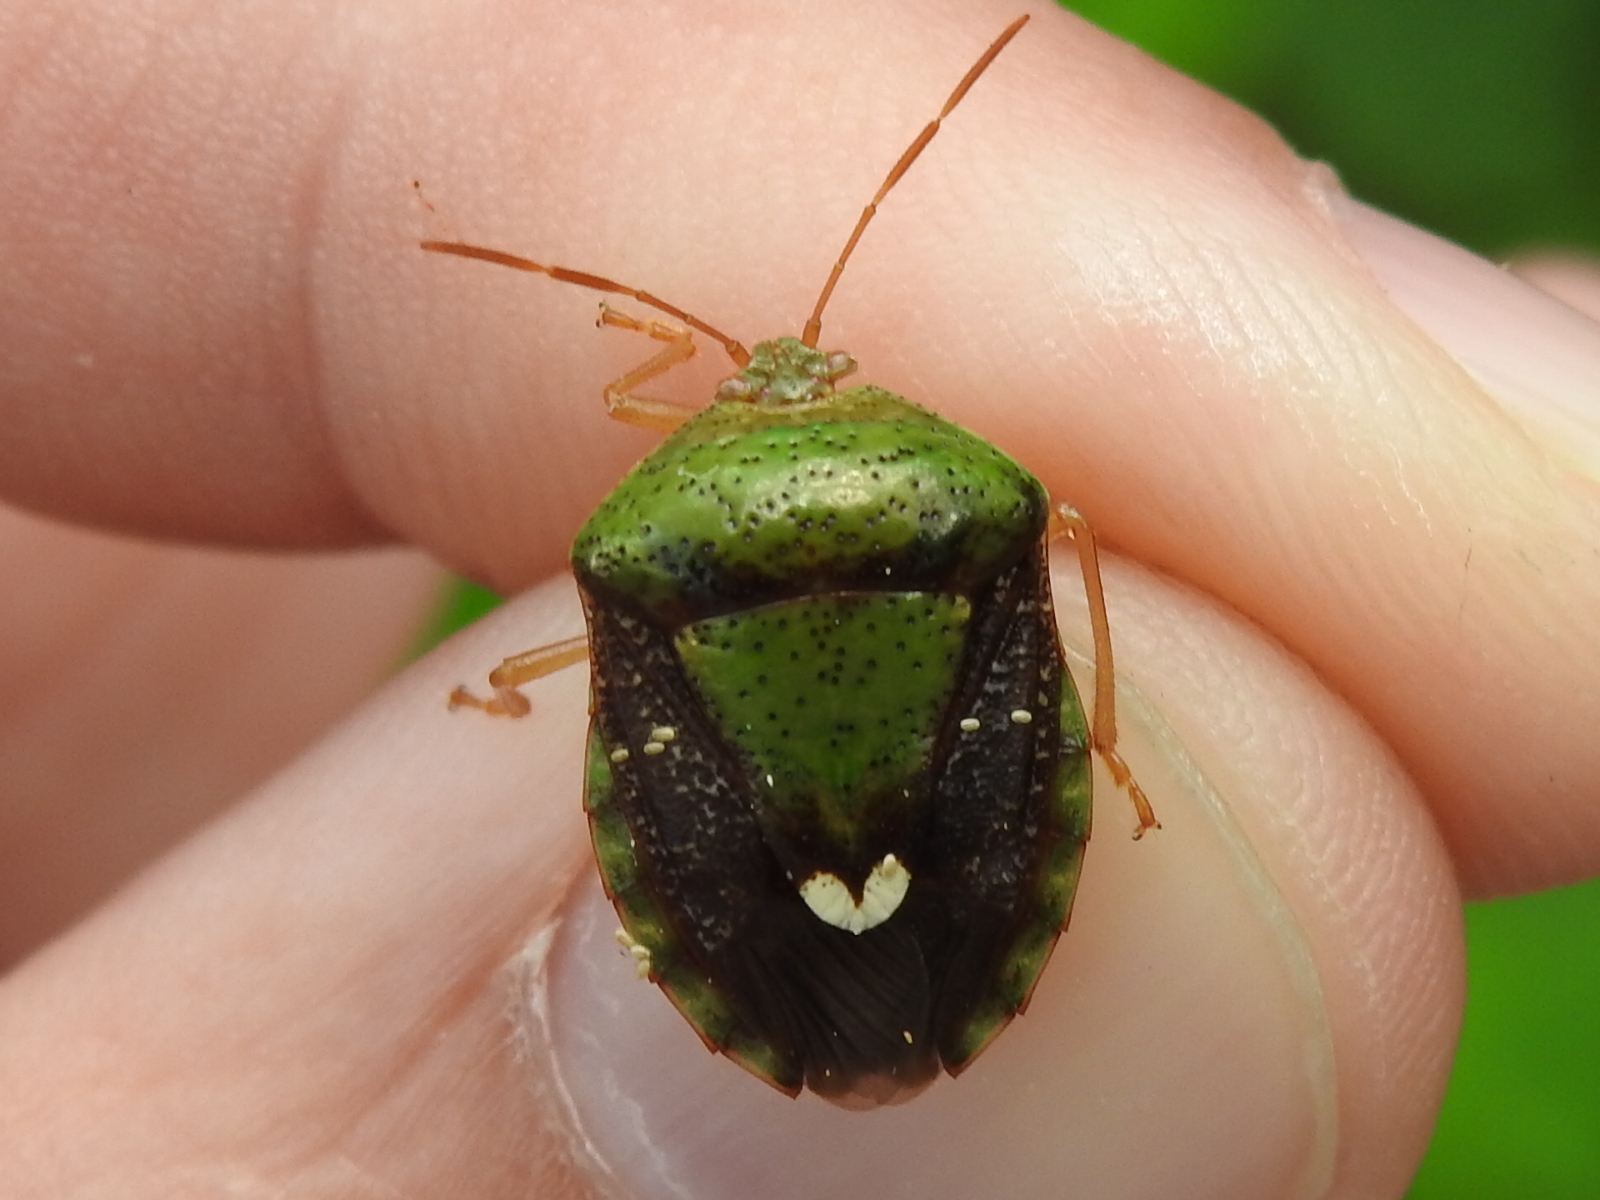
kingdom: Animalia
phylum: Arthropoda
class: Insecta
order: Hemiptera
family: Pentatomidae
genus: Edessa
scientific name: Edessa bifida
